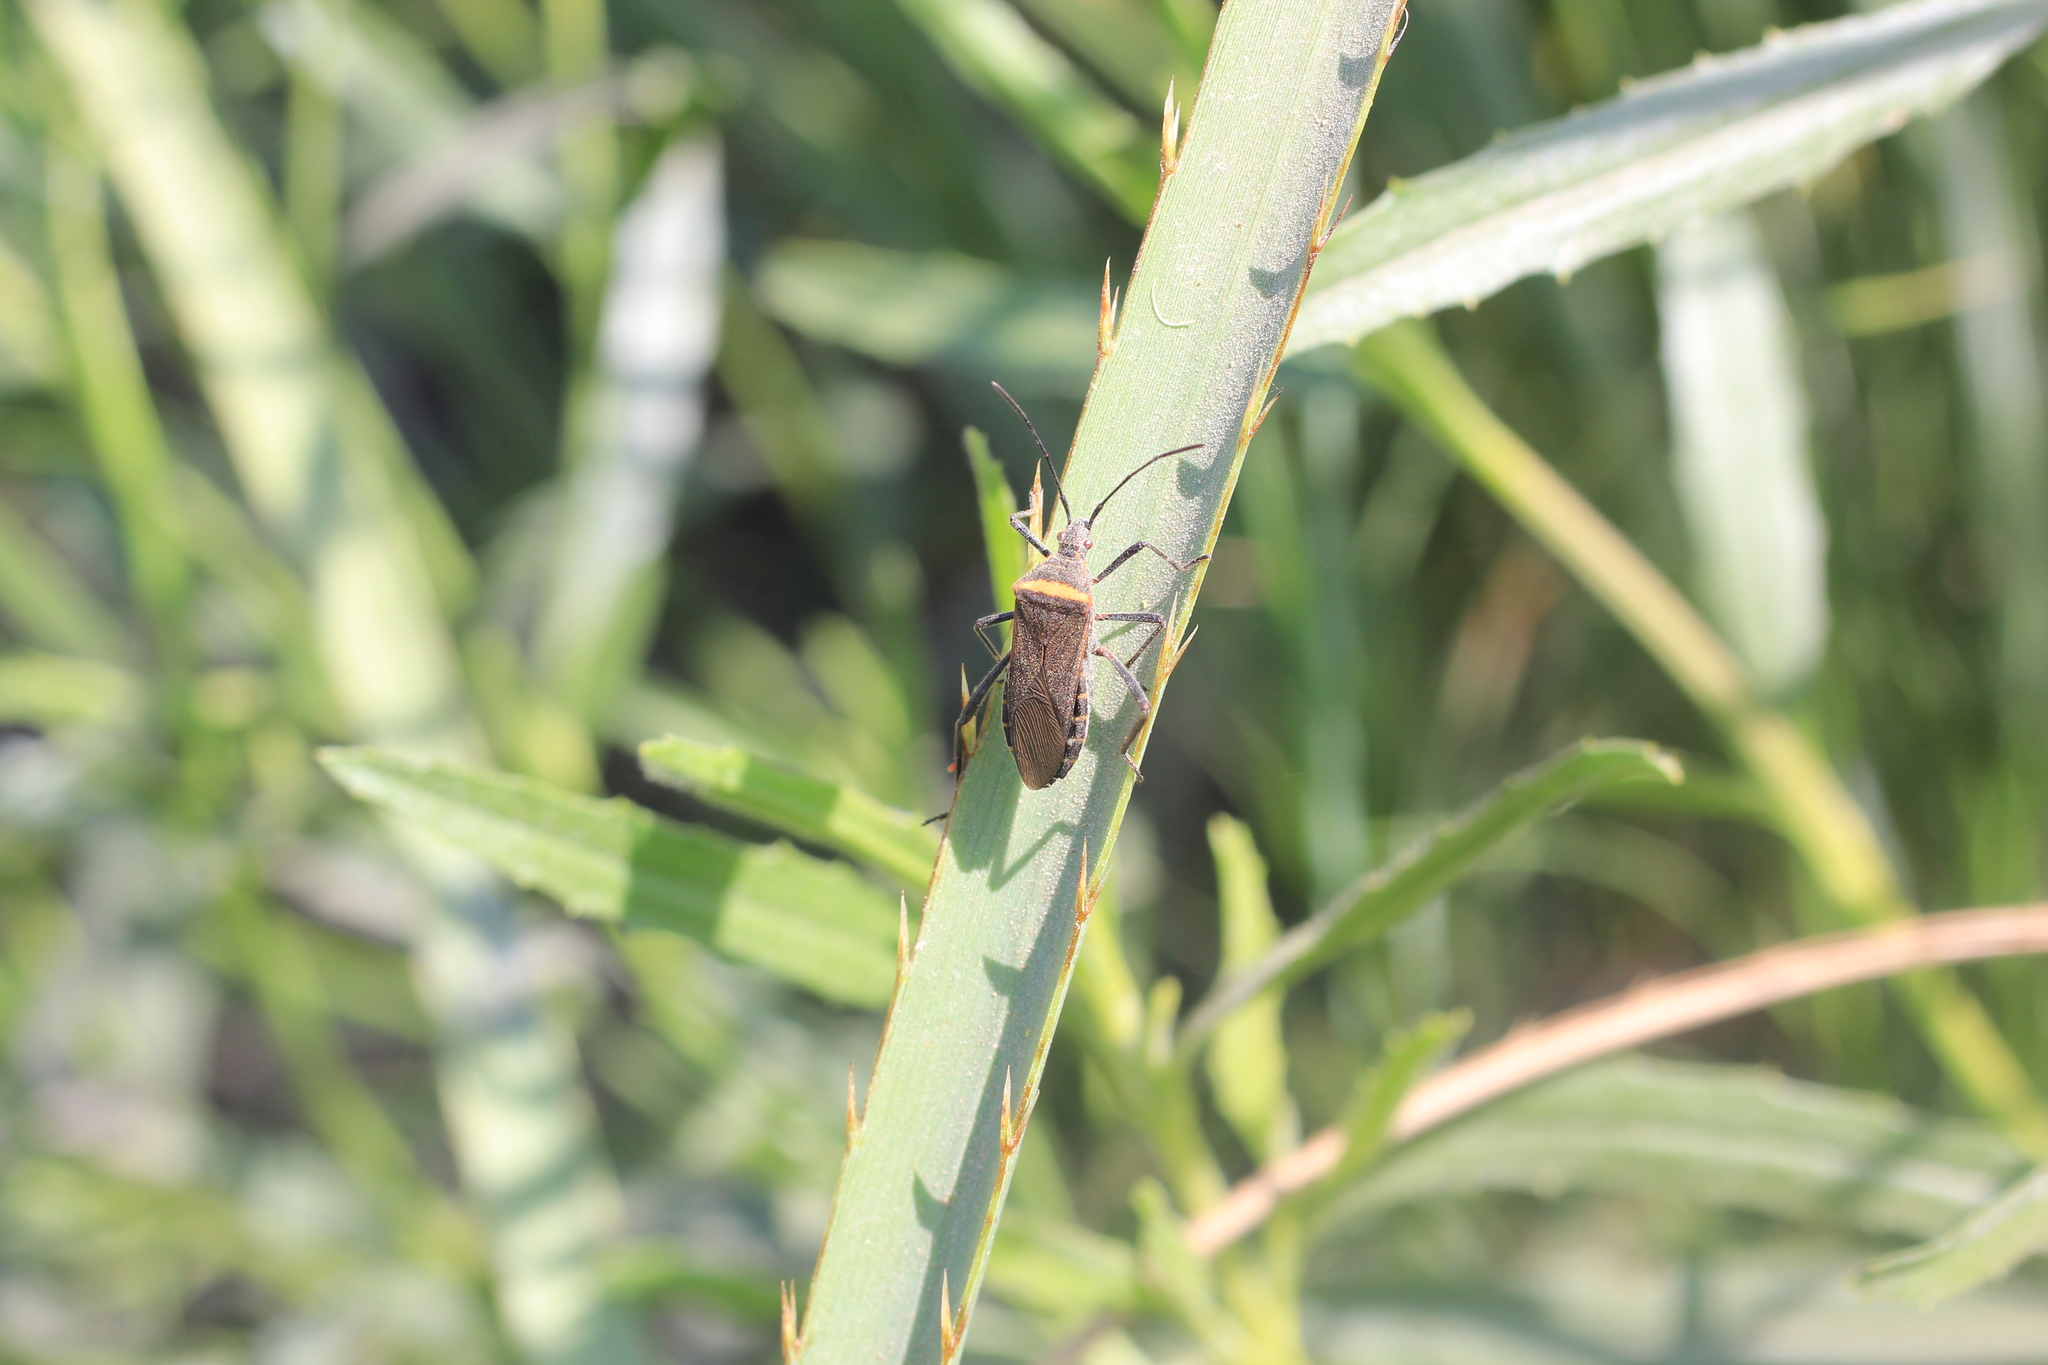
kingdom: Animalia
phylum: Arthropoda
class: Insecta
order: Hemiptera
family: Coreidae
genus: Phthiacnemia
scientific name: Phthiacnemia picta
